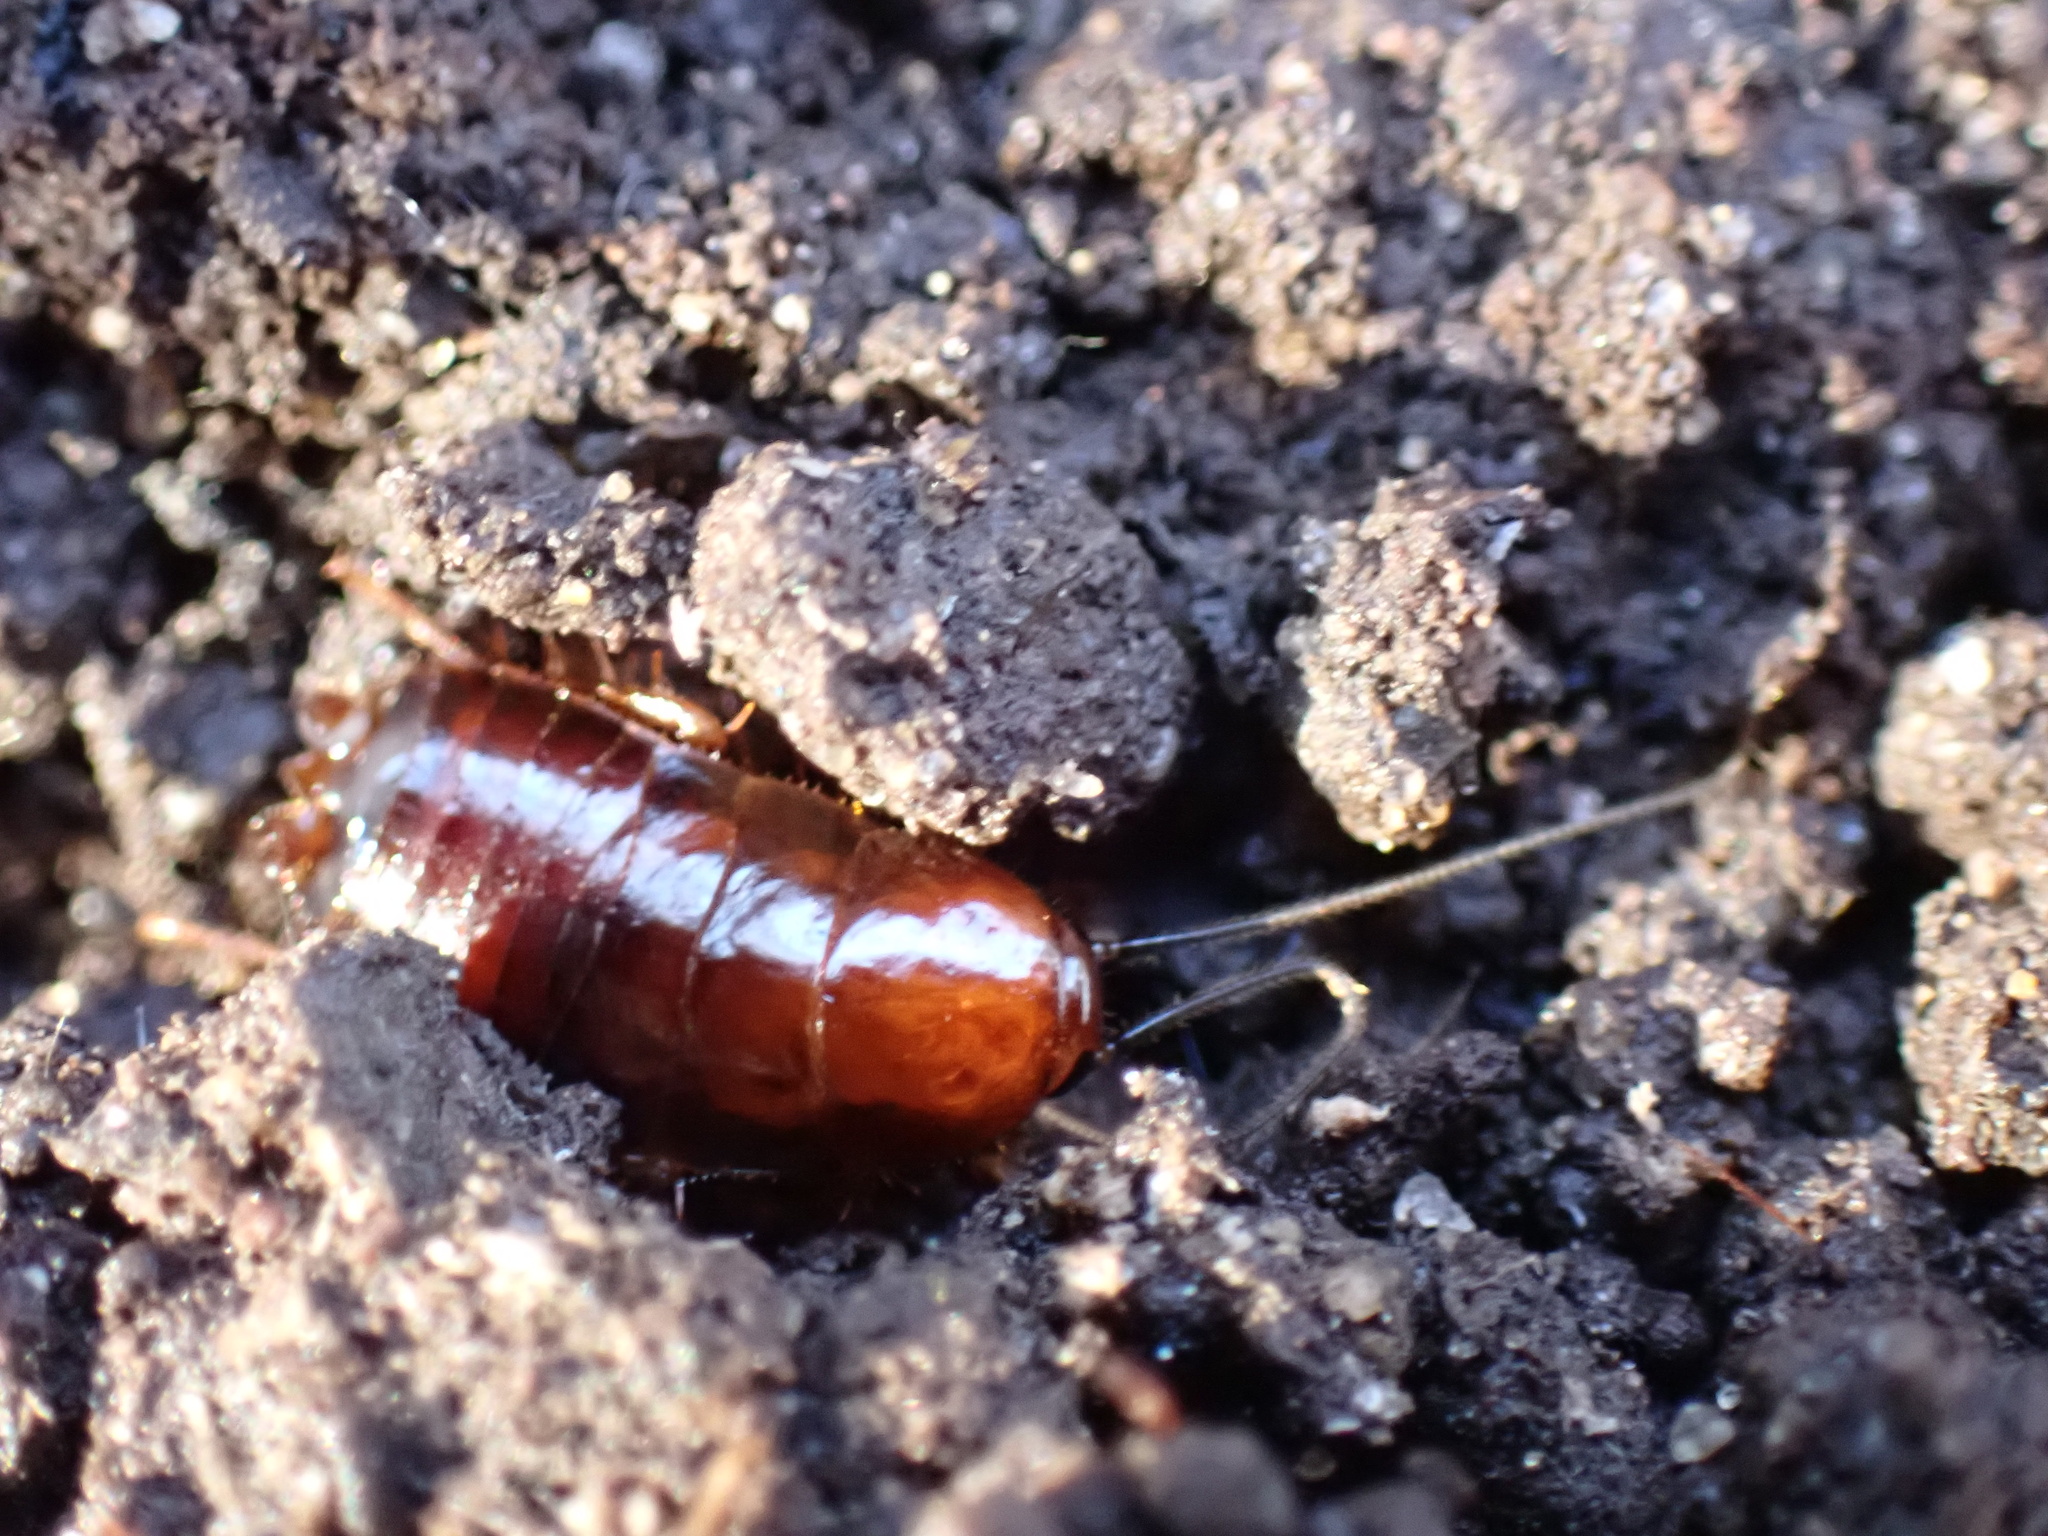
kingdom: Animalia
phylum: Arthropoda
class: Insecta
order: Blattodea
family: Ectobiidae
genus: Parcoblatta
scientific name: Parcoblatta pennsylvanica
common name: Pennsylvanian wood cockroach
